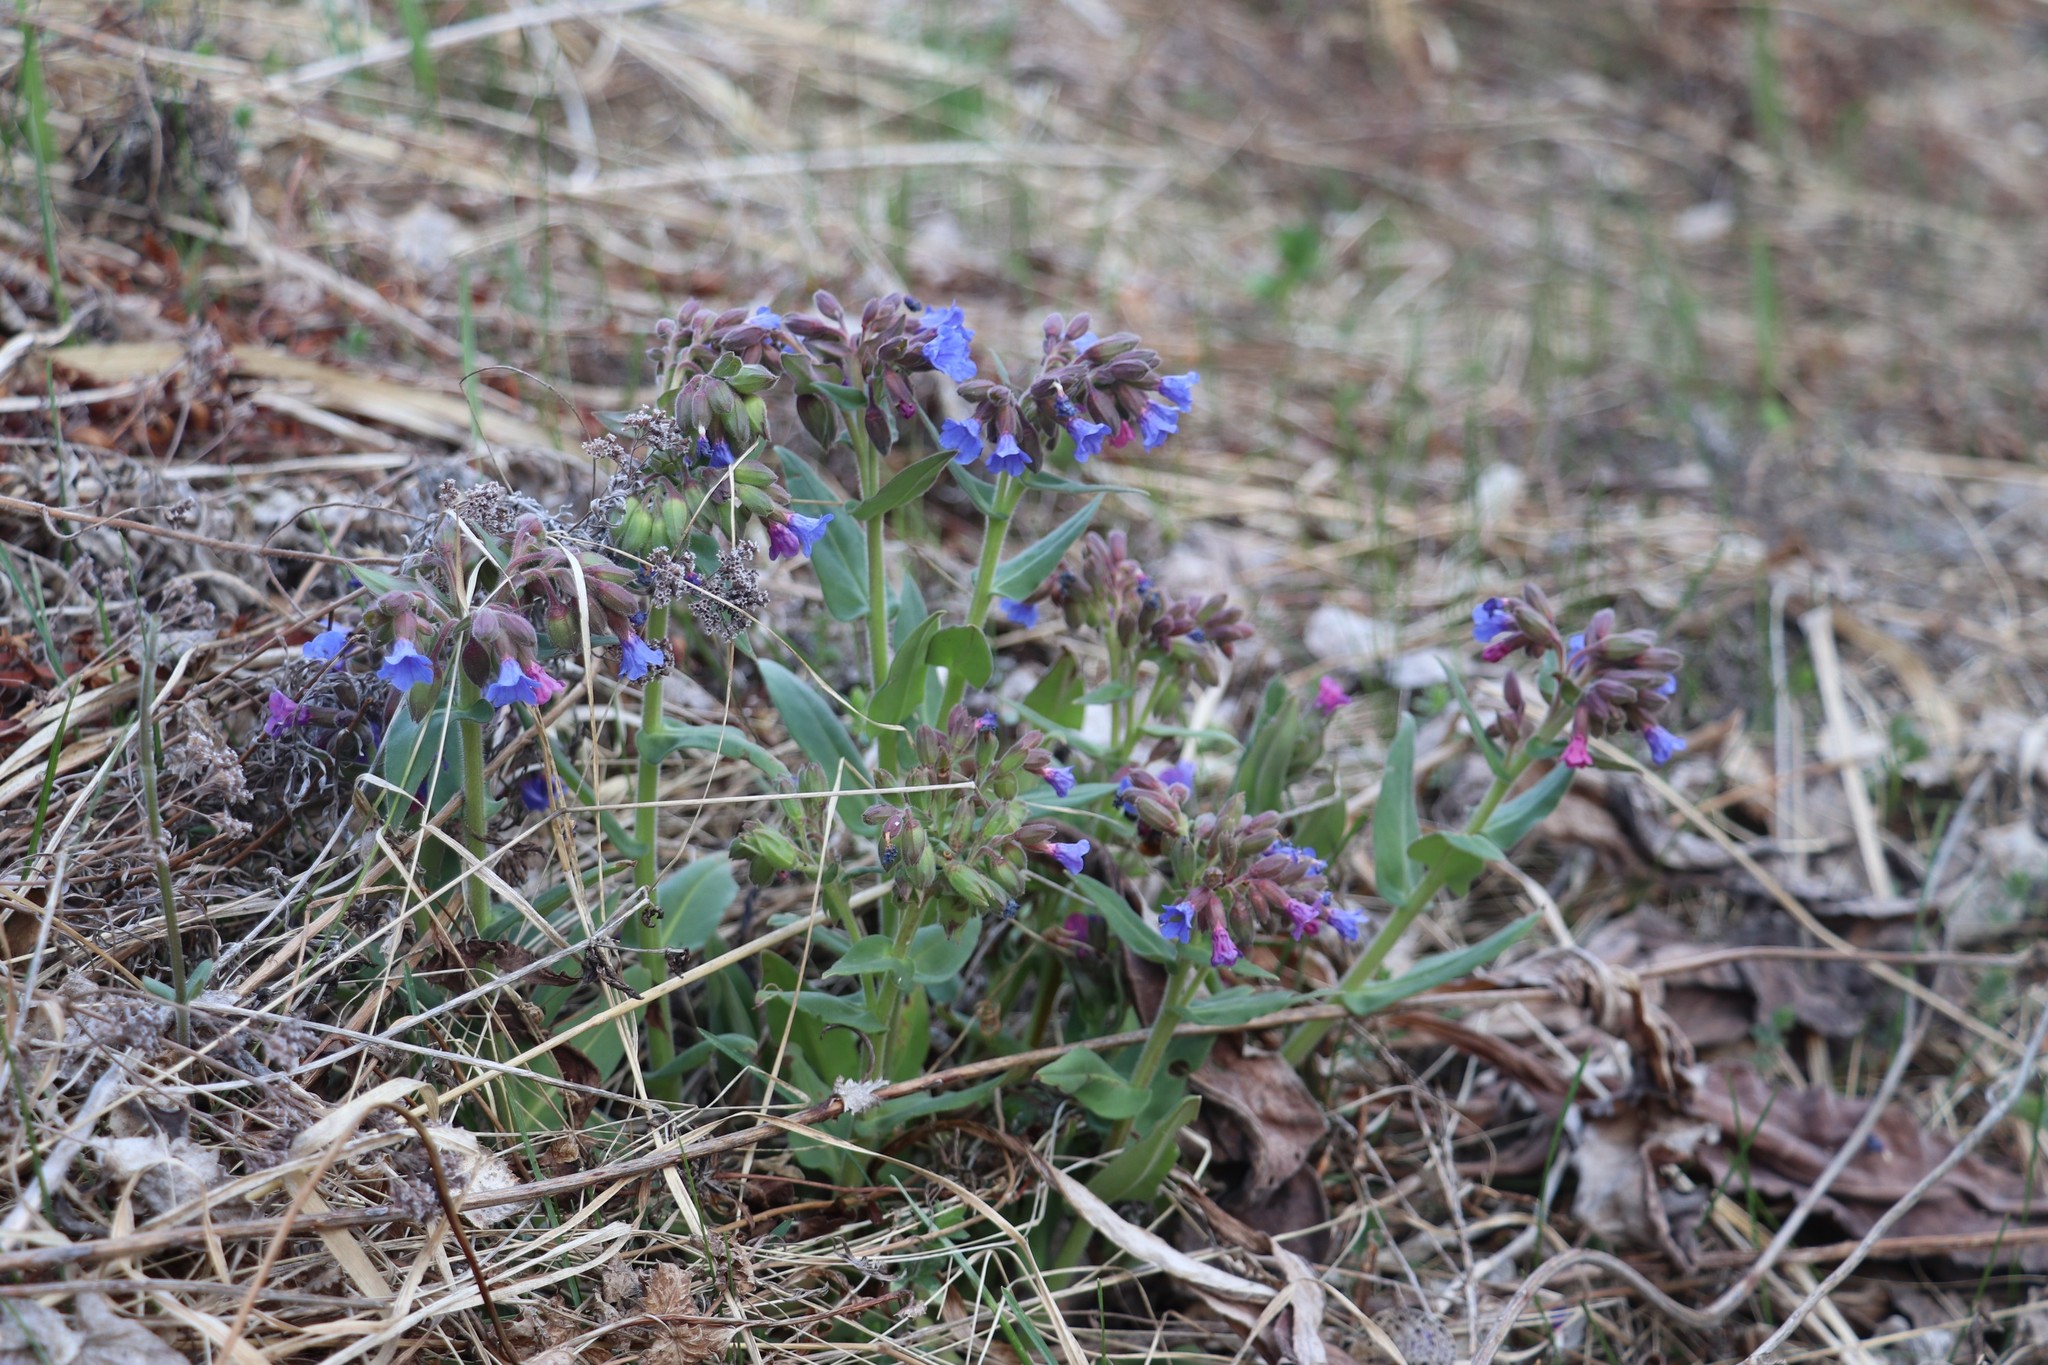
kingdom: Plantae
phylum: Tracheophyta
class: Magnoliopsida
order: Boraginales
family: Boraginaceae
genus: Pulmonaria
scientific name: Pulmonaria mollis
